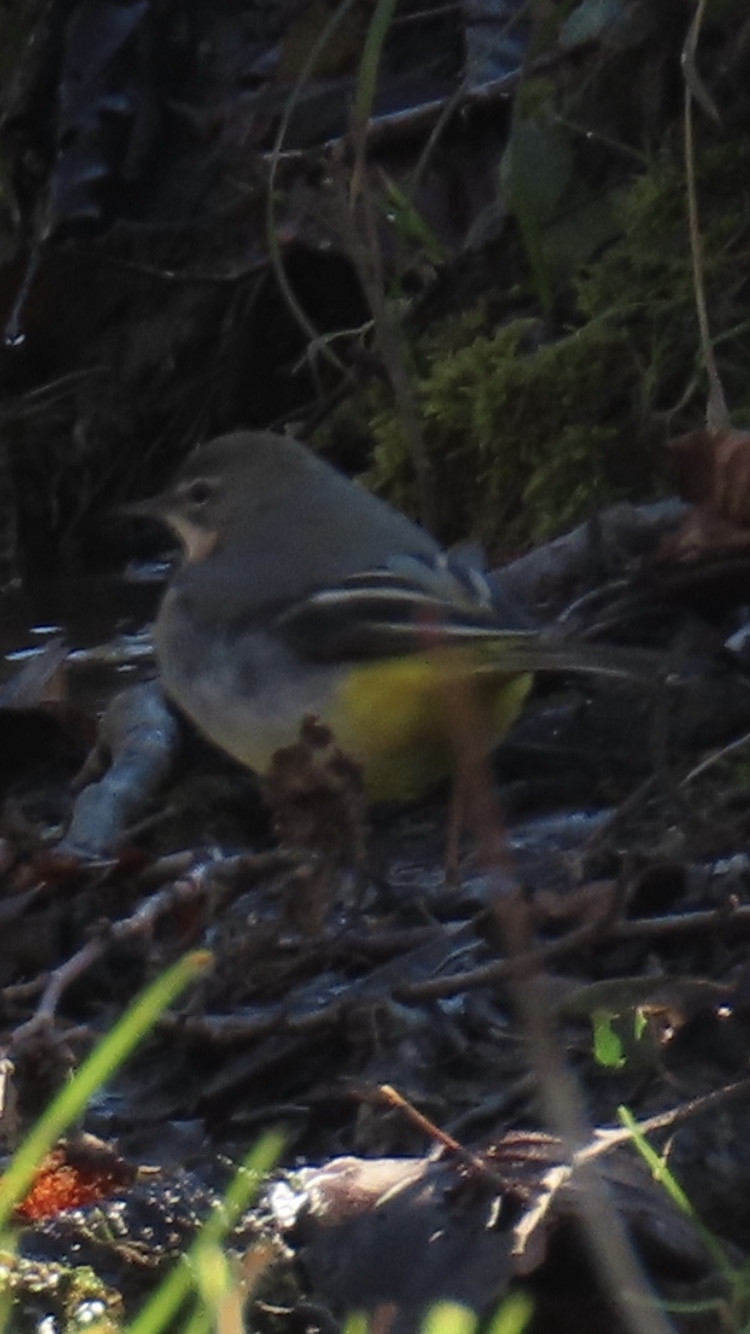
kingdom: Animalia
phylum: Chordata
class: Aves
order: Passeriformes
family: Motacillidae
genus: Motacilla
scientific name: Motacilla cinerea
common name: Grey wagtail
